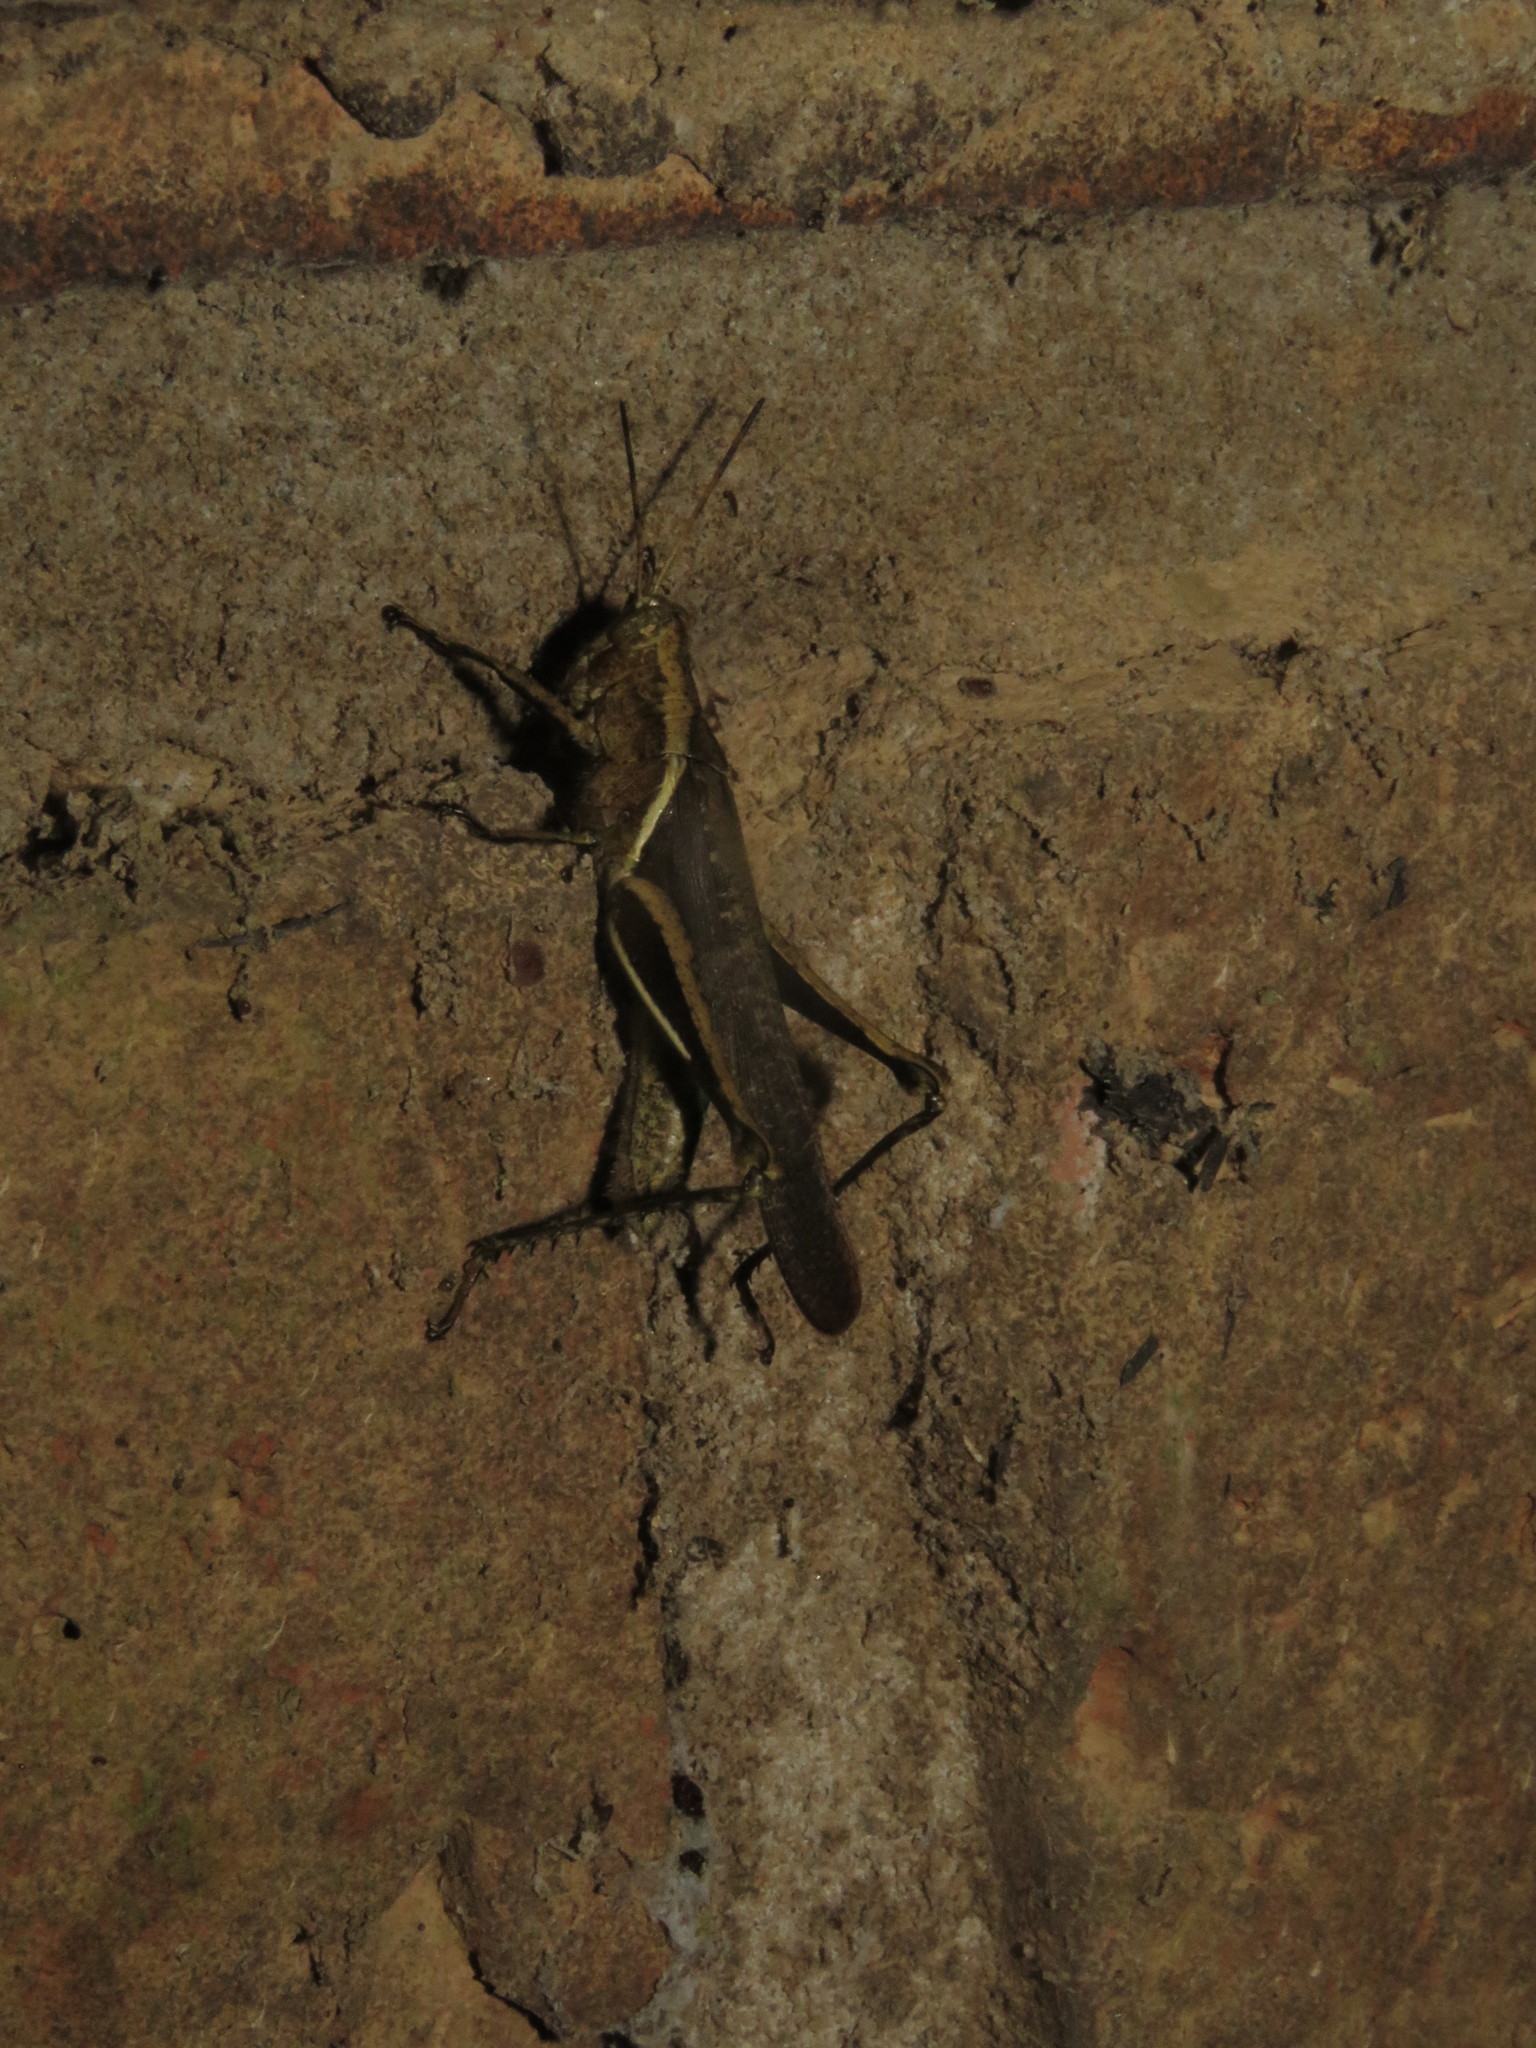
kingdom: Animalia
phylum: Arthropoda
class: Insecta
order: Orthoptera
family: Acrididae
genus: Abracris
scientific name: Abracris flavolineata
